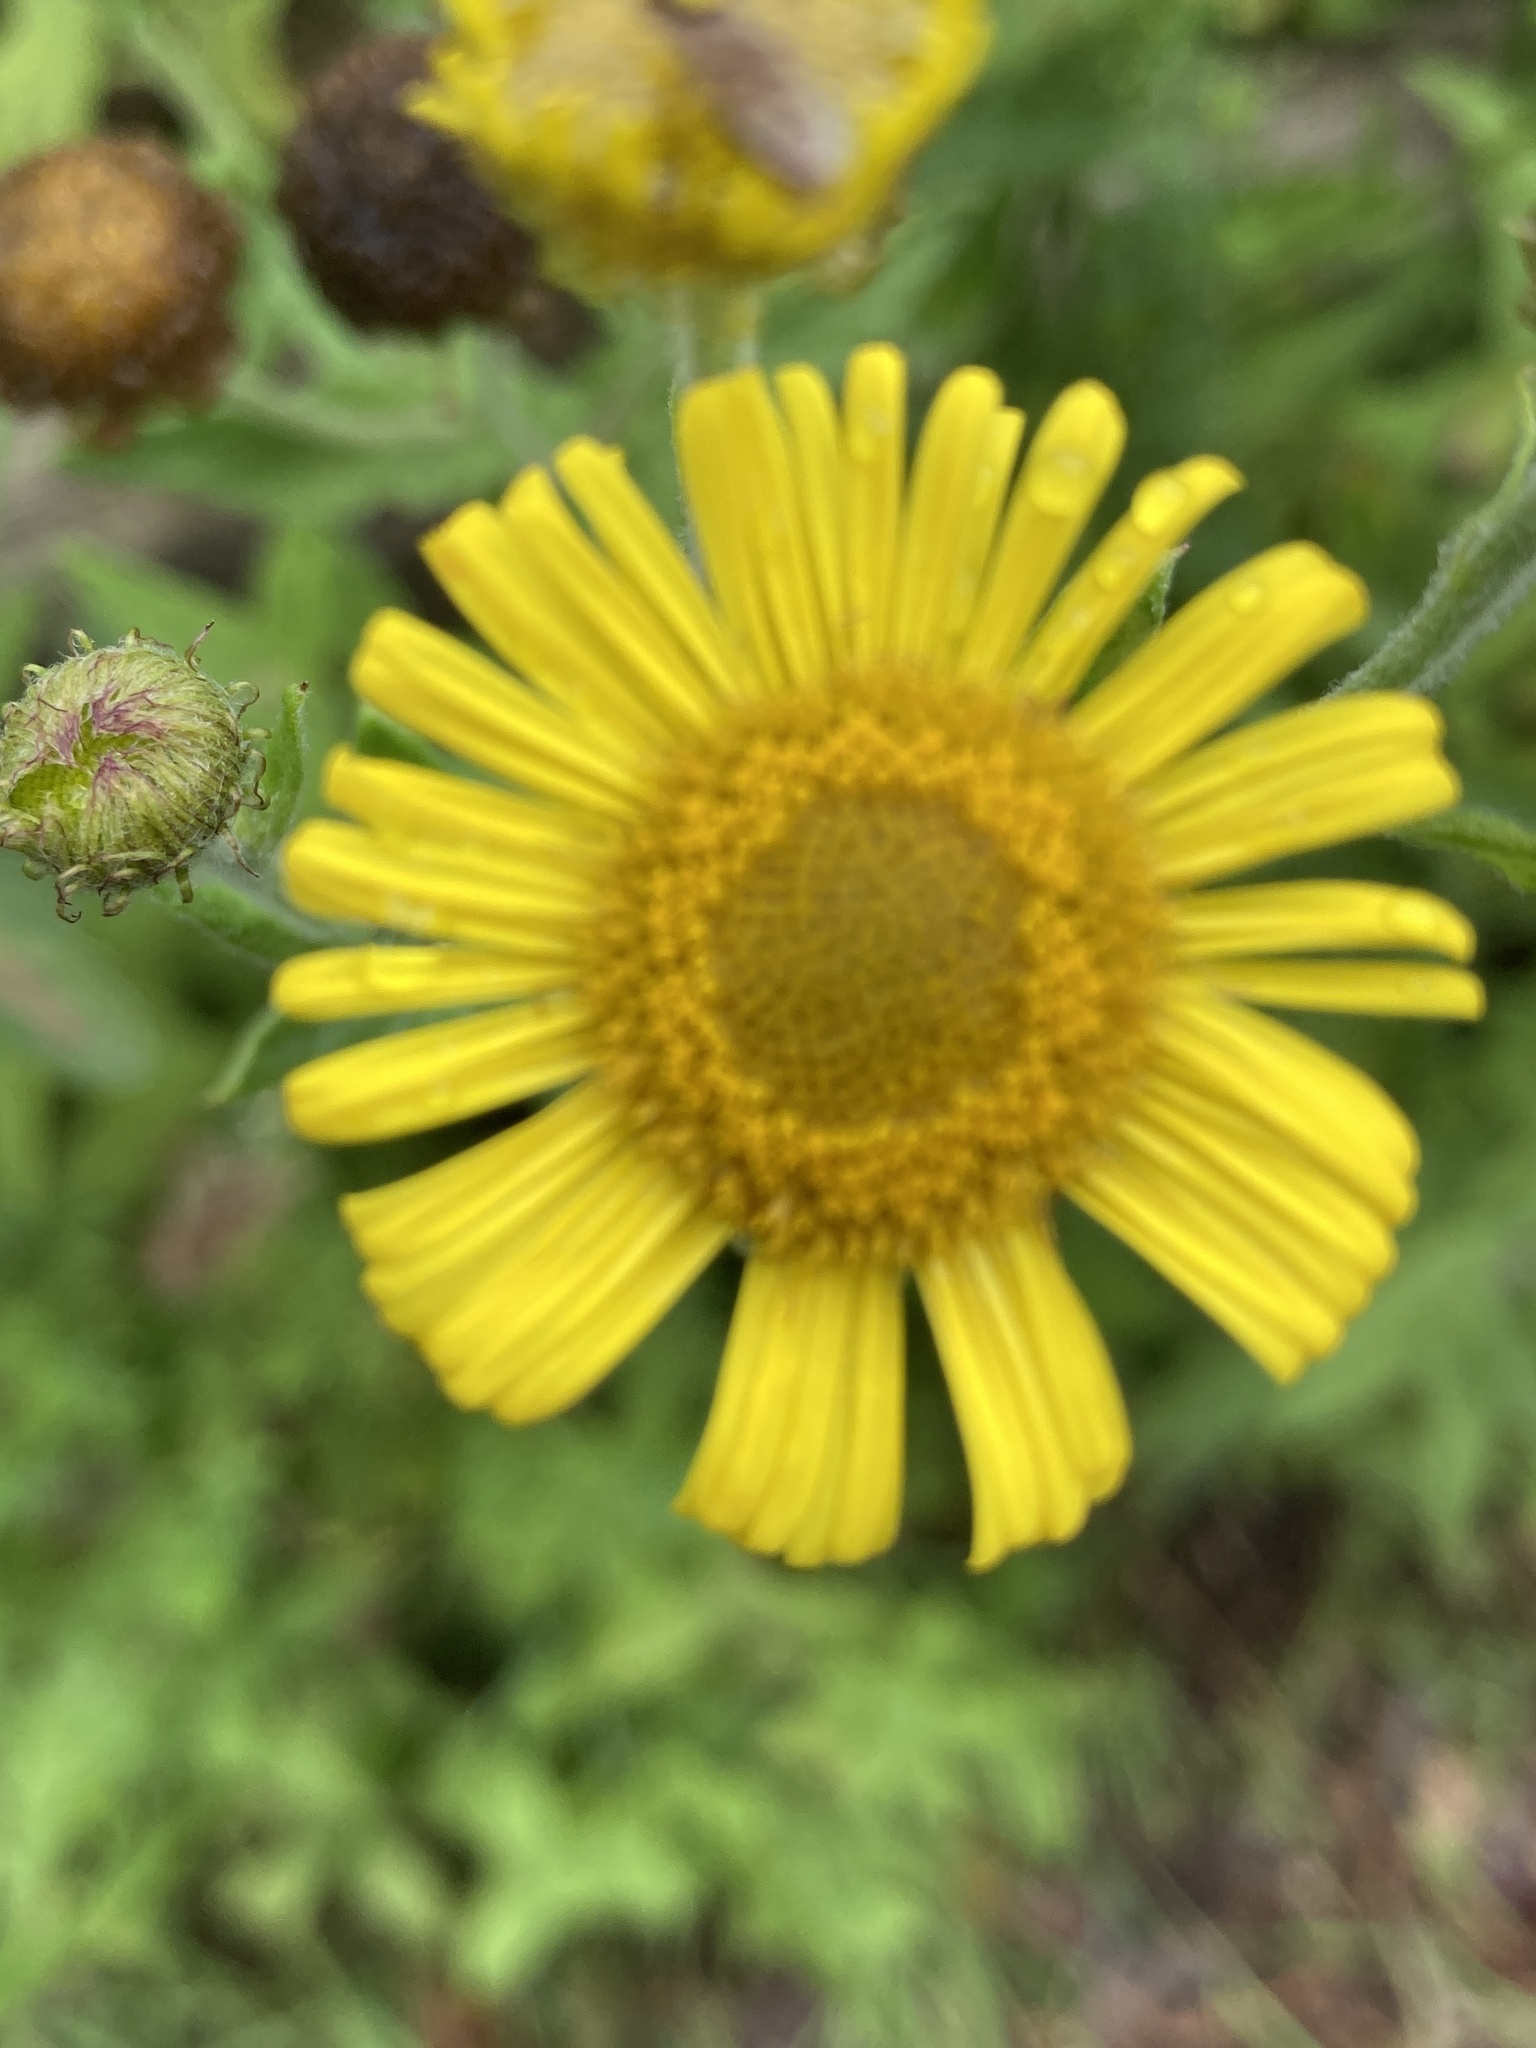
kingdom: Plantae
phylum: Tracheophyta
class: Magnoliopsida
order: Asterales
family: Asteraceae
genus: Pulicaria
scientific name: Pulicaria dysenterica
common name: Common fleabane
